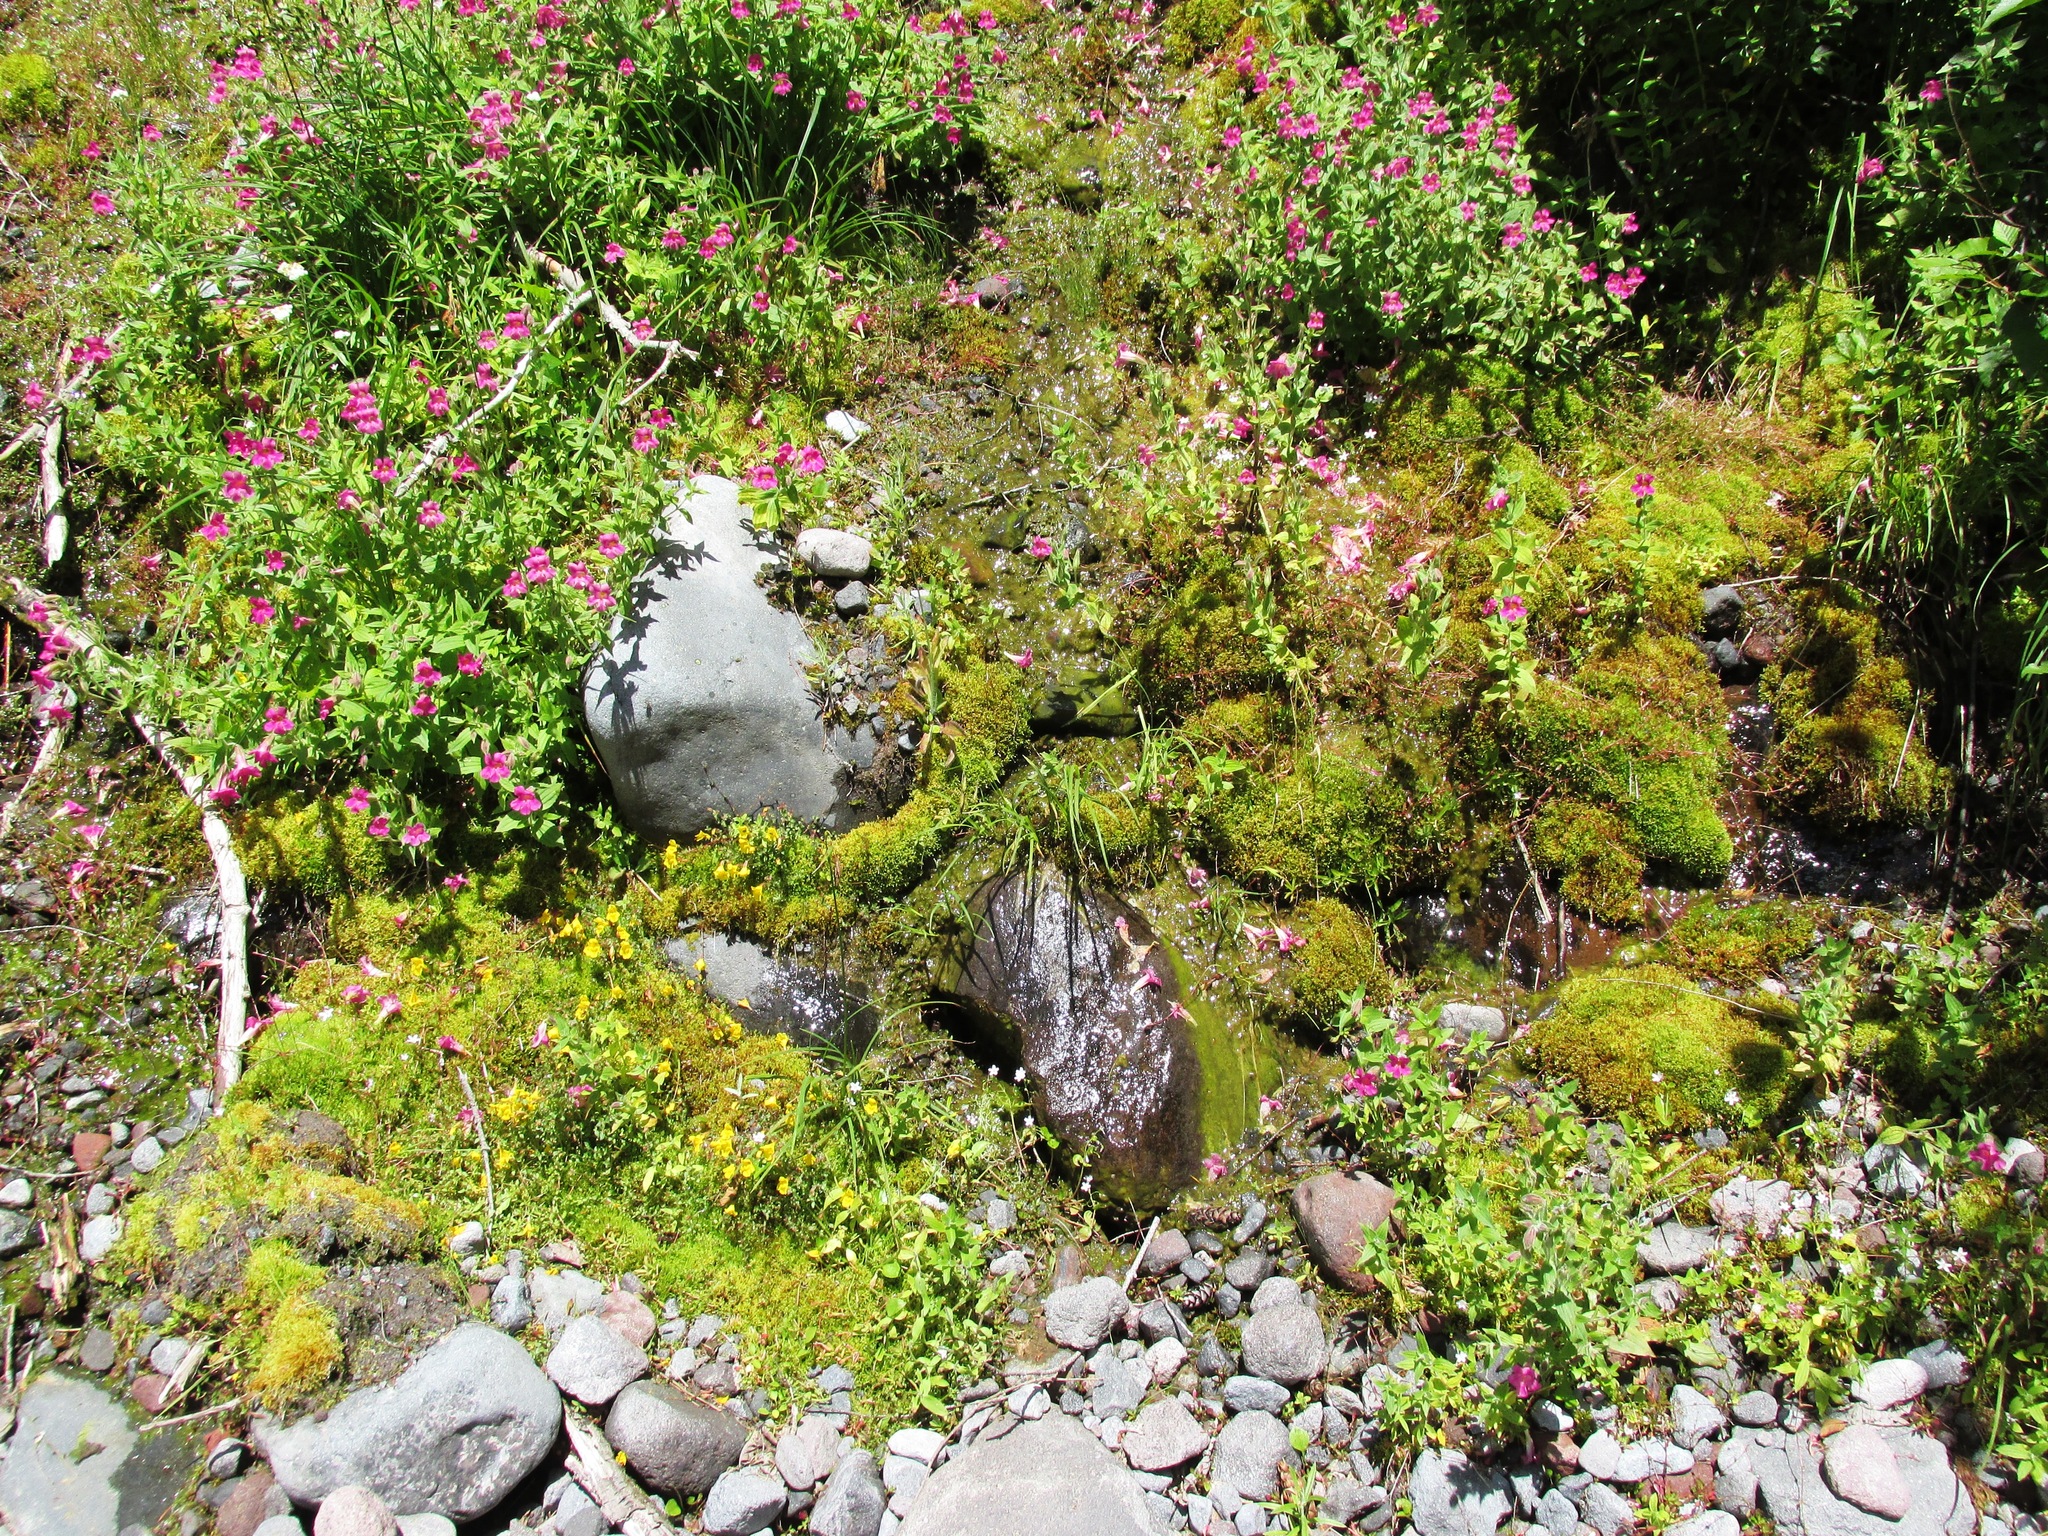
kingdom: Plantae
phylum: Tracheophyta
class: Magnoliopsida
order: Lamiales
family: Phrymaceae
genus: Erythranthe
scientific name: Erythranthe lewisii
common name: Lewis's monkey-flower
